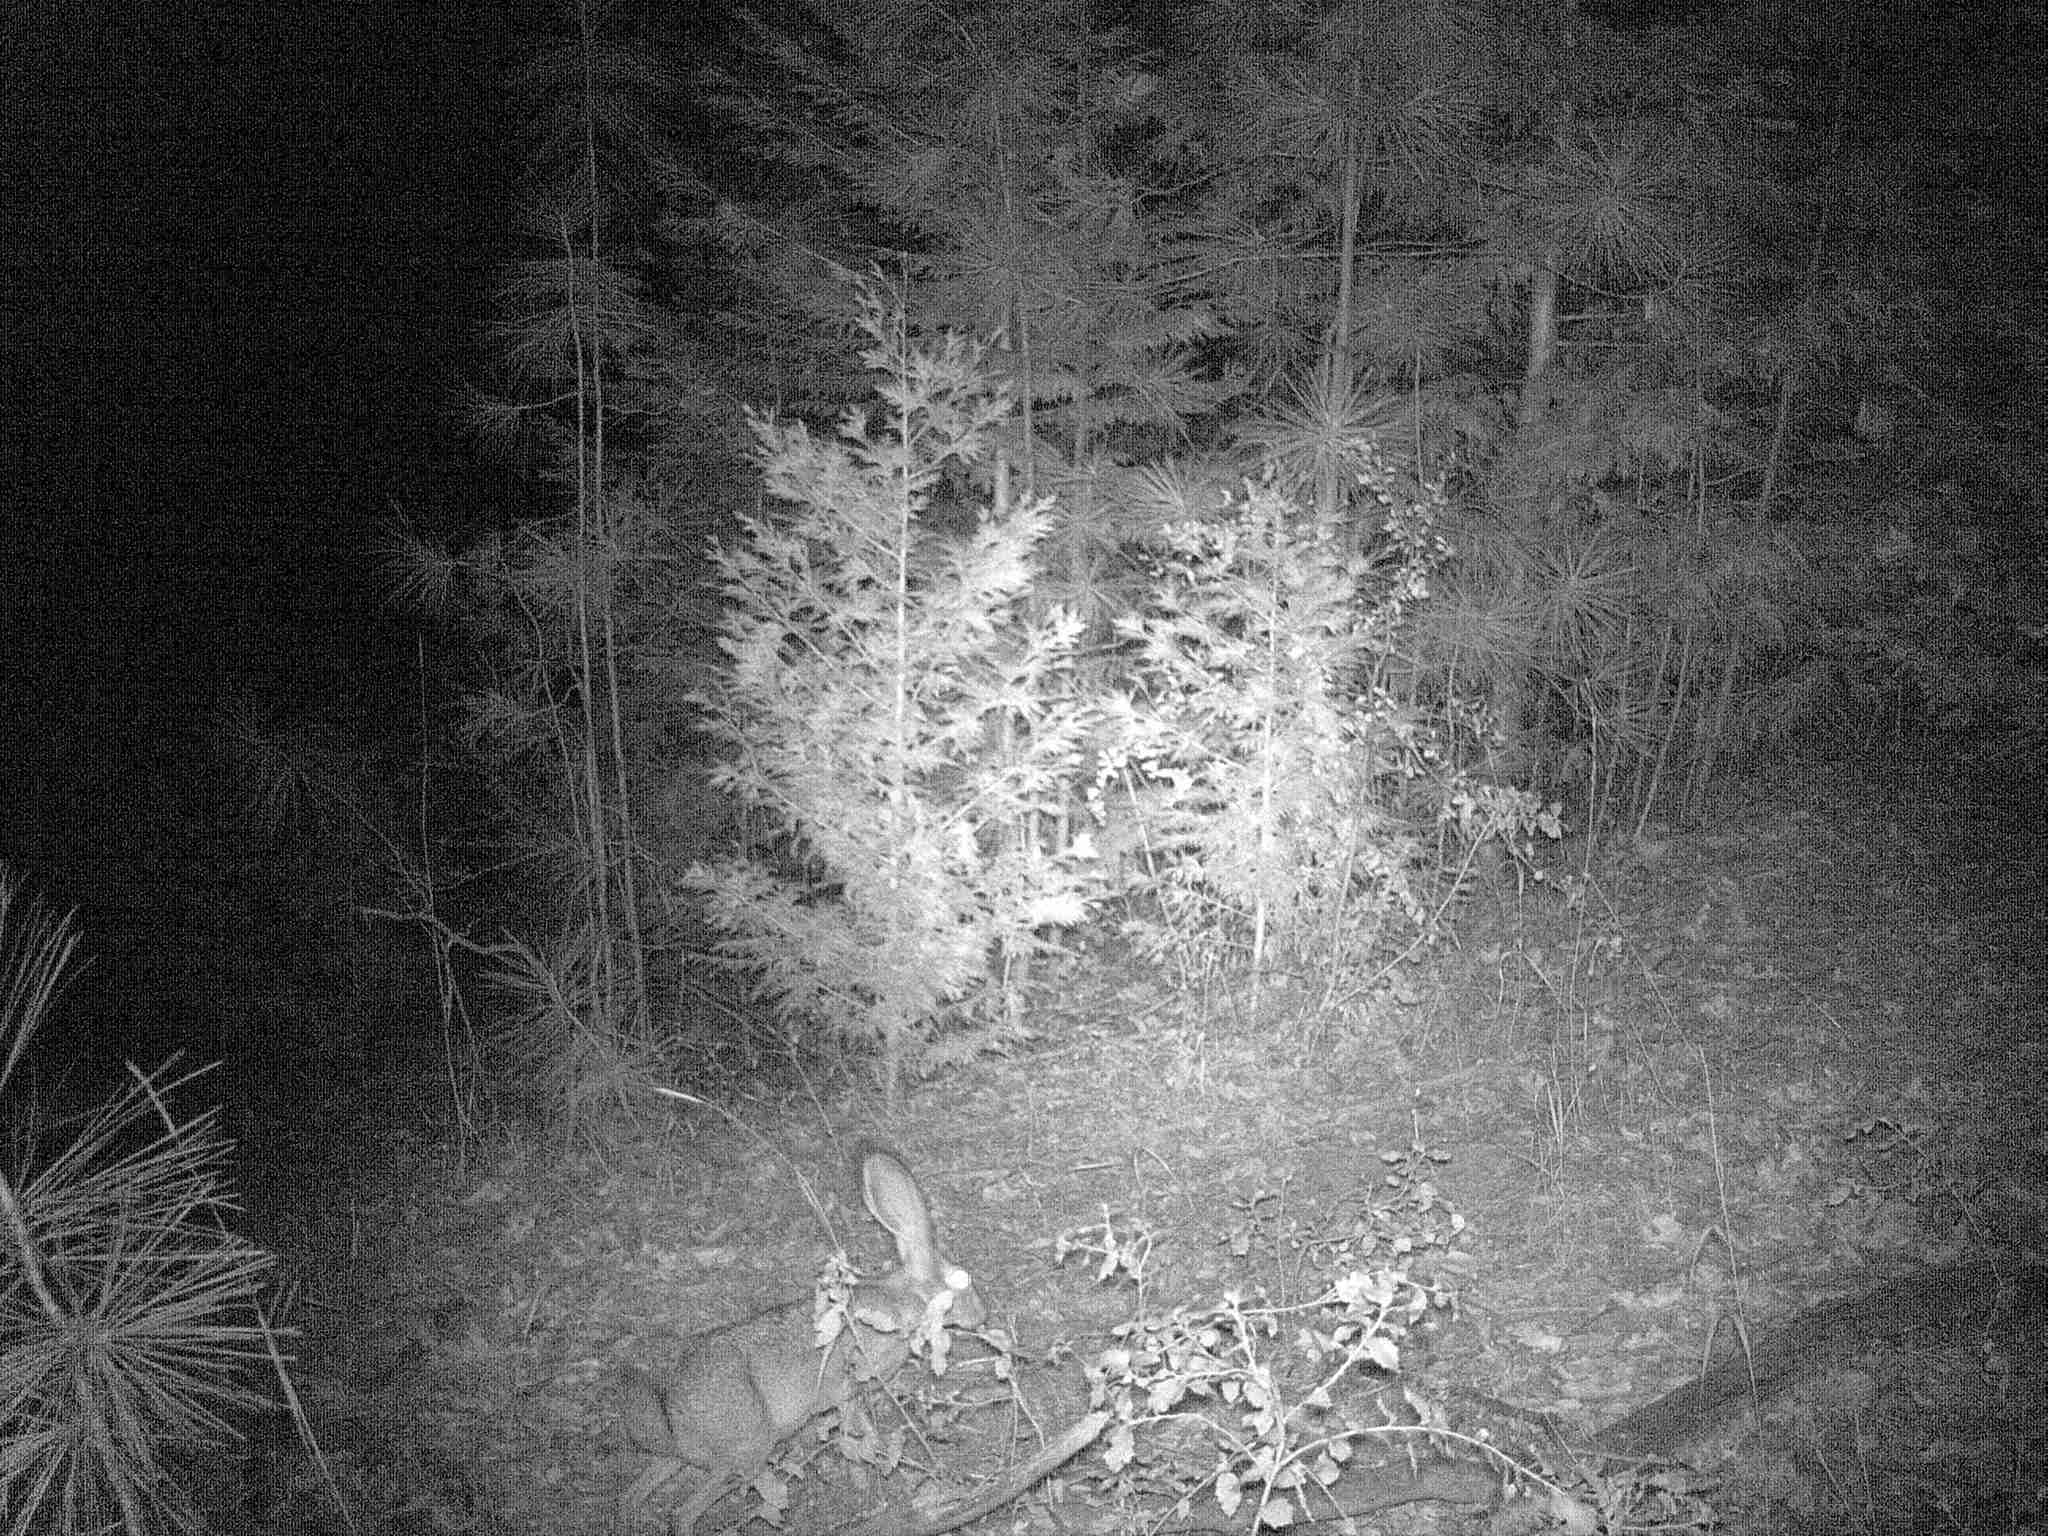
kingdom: Animalia
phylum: Chordata
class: Mammalia
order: Lagomorpha
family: Leporidae
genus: Lepus
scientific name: Lepus californicus
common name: Black-tailed jackrabbit
